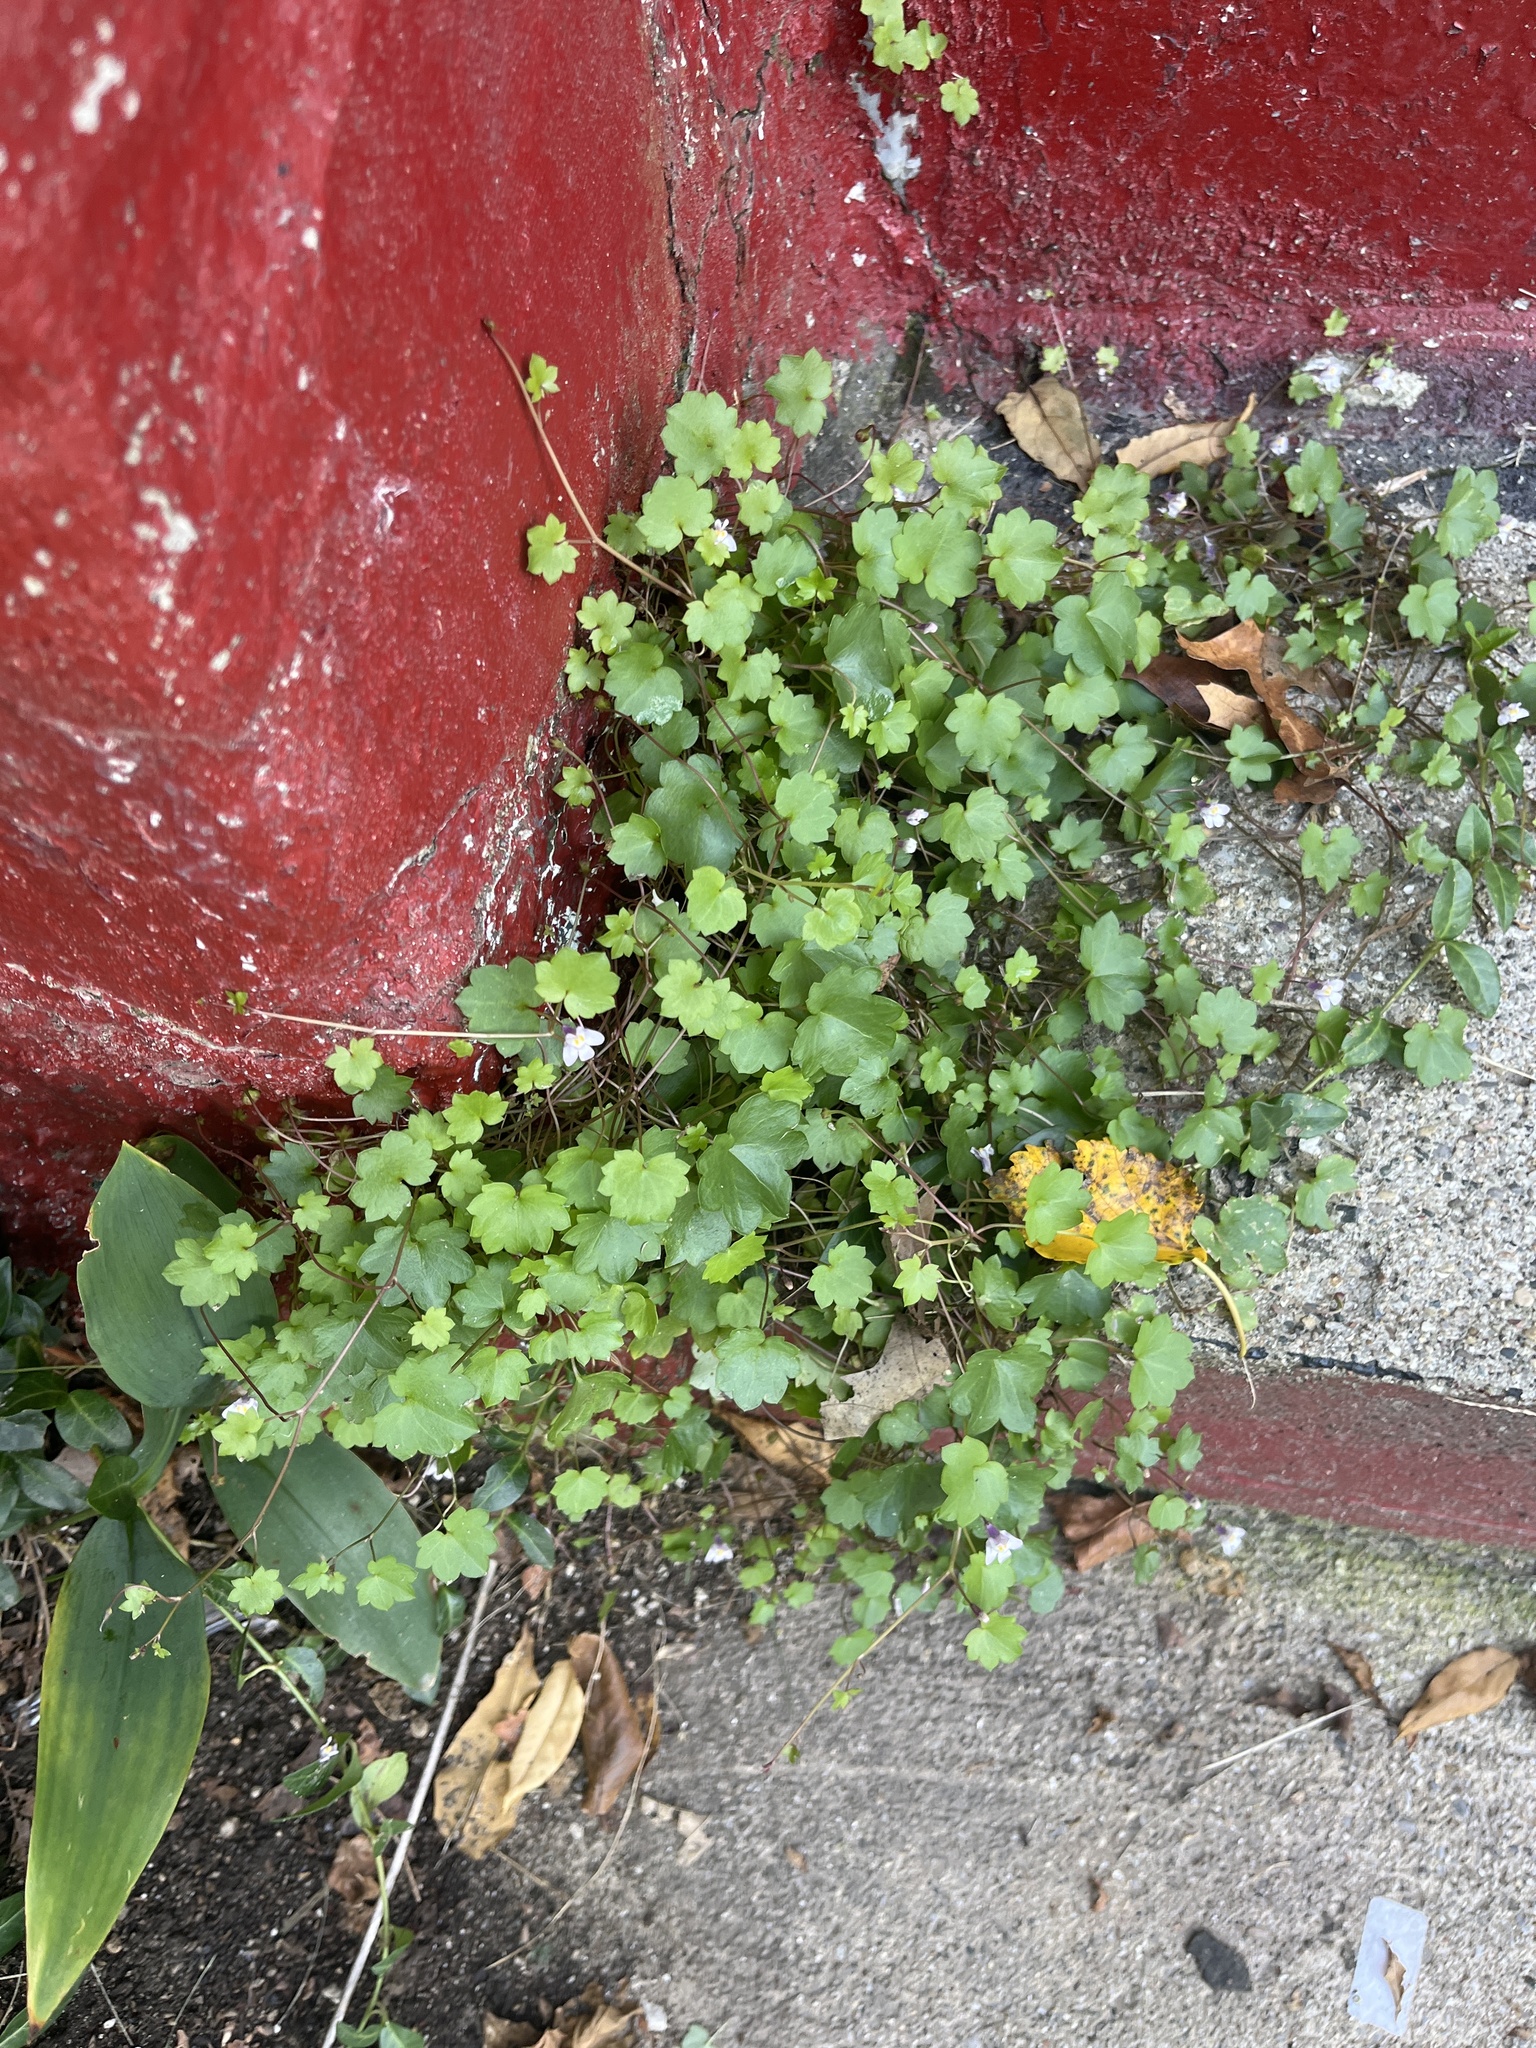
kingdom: Plantae
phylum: Tracheophyta
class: Magnoliopsida
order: Lamiales
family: Plantaginaceae
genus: Cymbalaria
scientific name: Cymbalaria muralis
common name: Ivy-leaved toadflax
